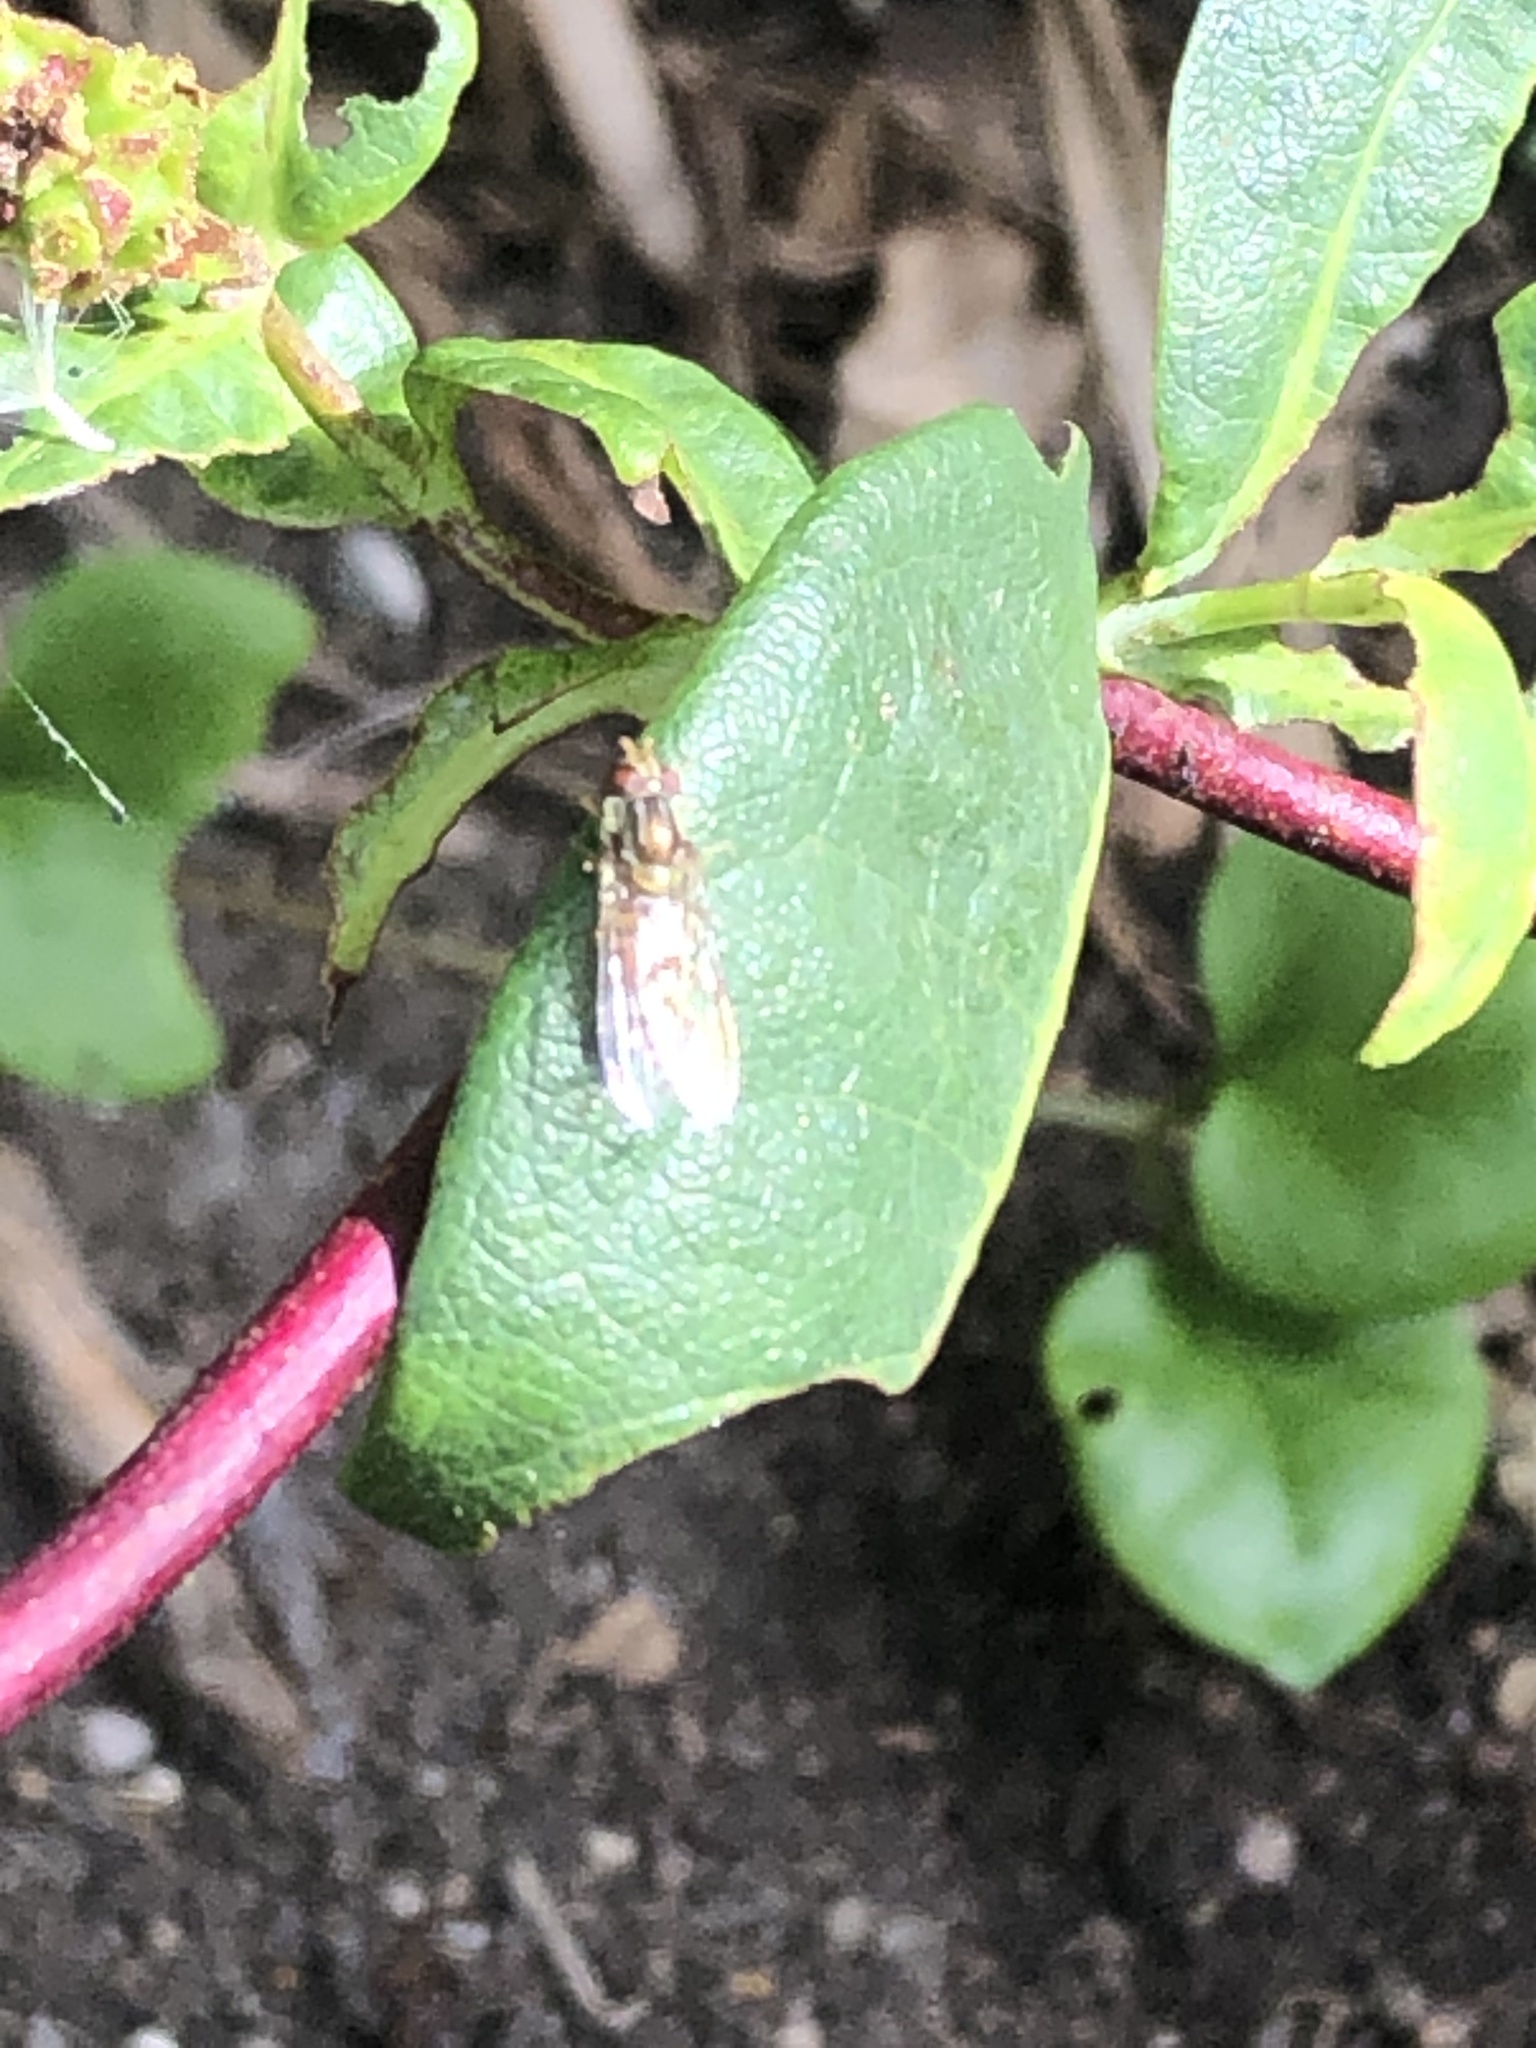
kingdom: Animalia
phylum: Arthropoda
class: Insecta
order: Diptera
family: Syrphidae
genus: Episyrphus
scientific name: Episyrphus balteatus
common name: Marmalade hoverfly
